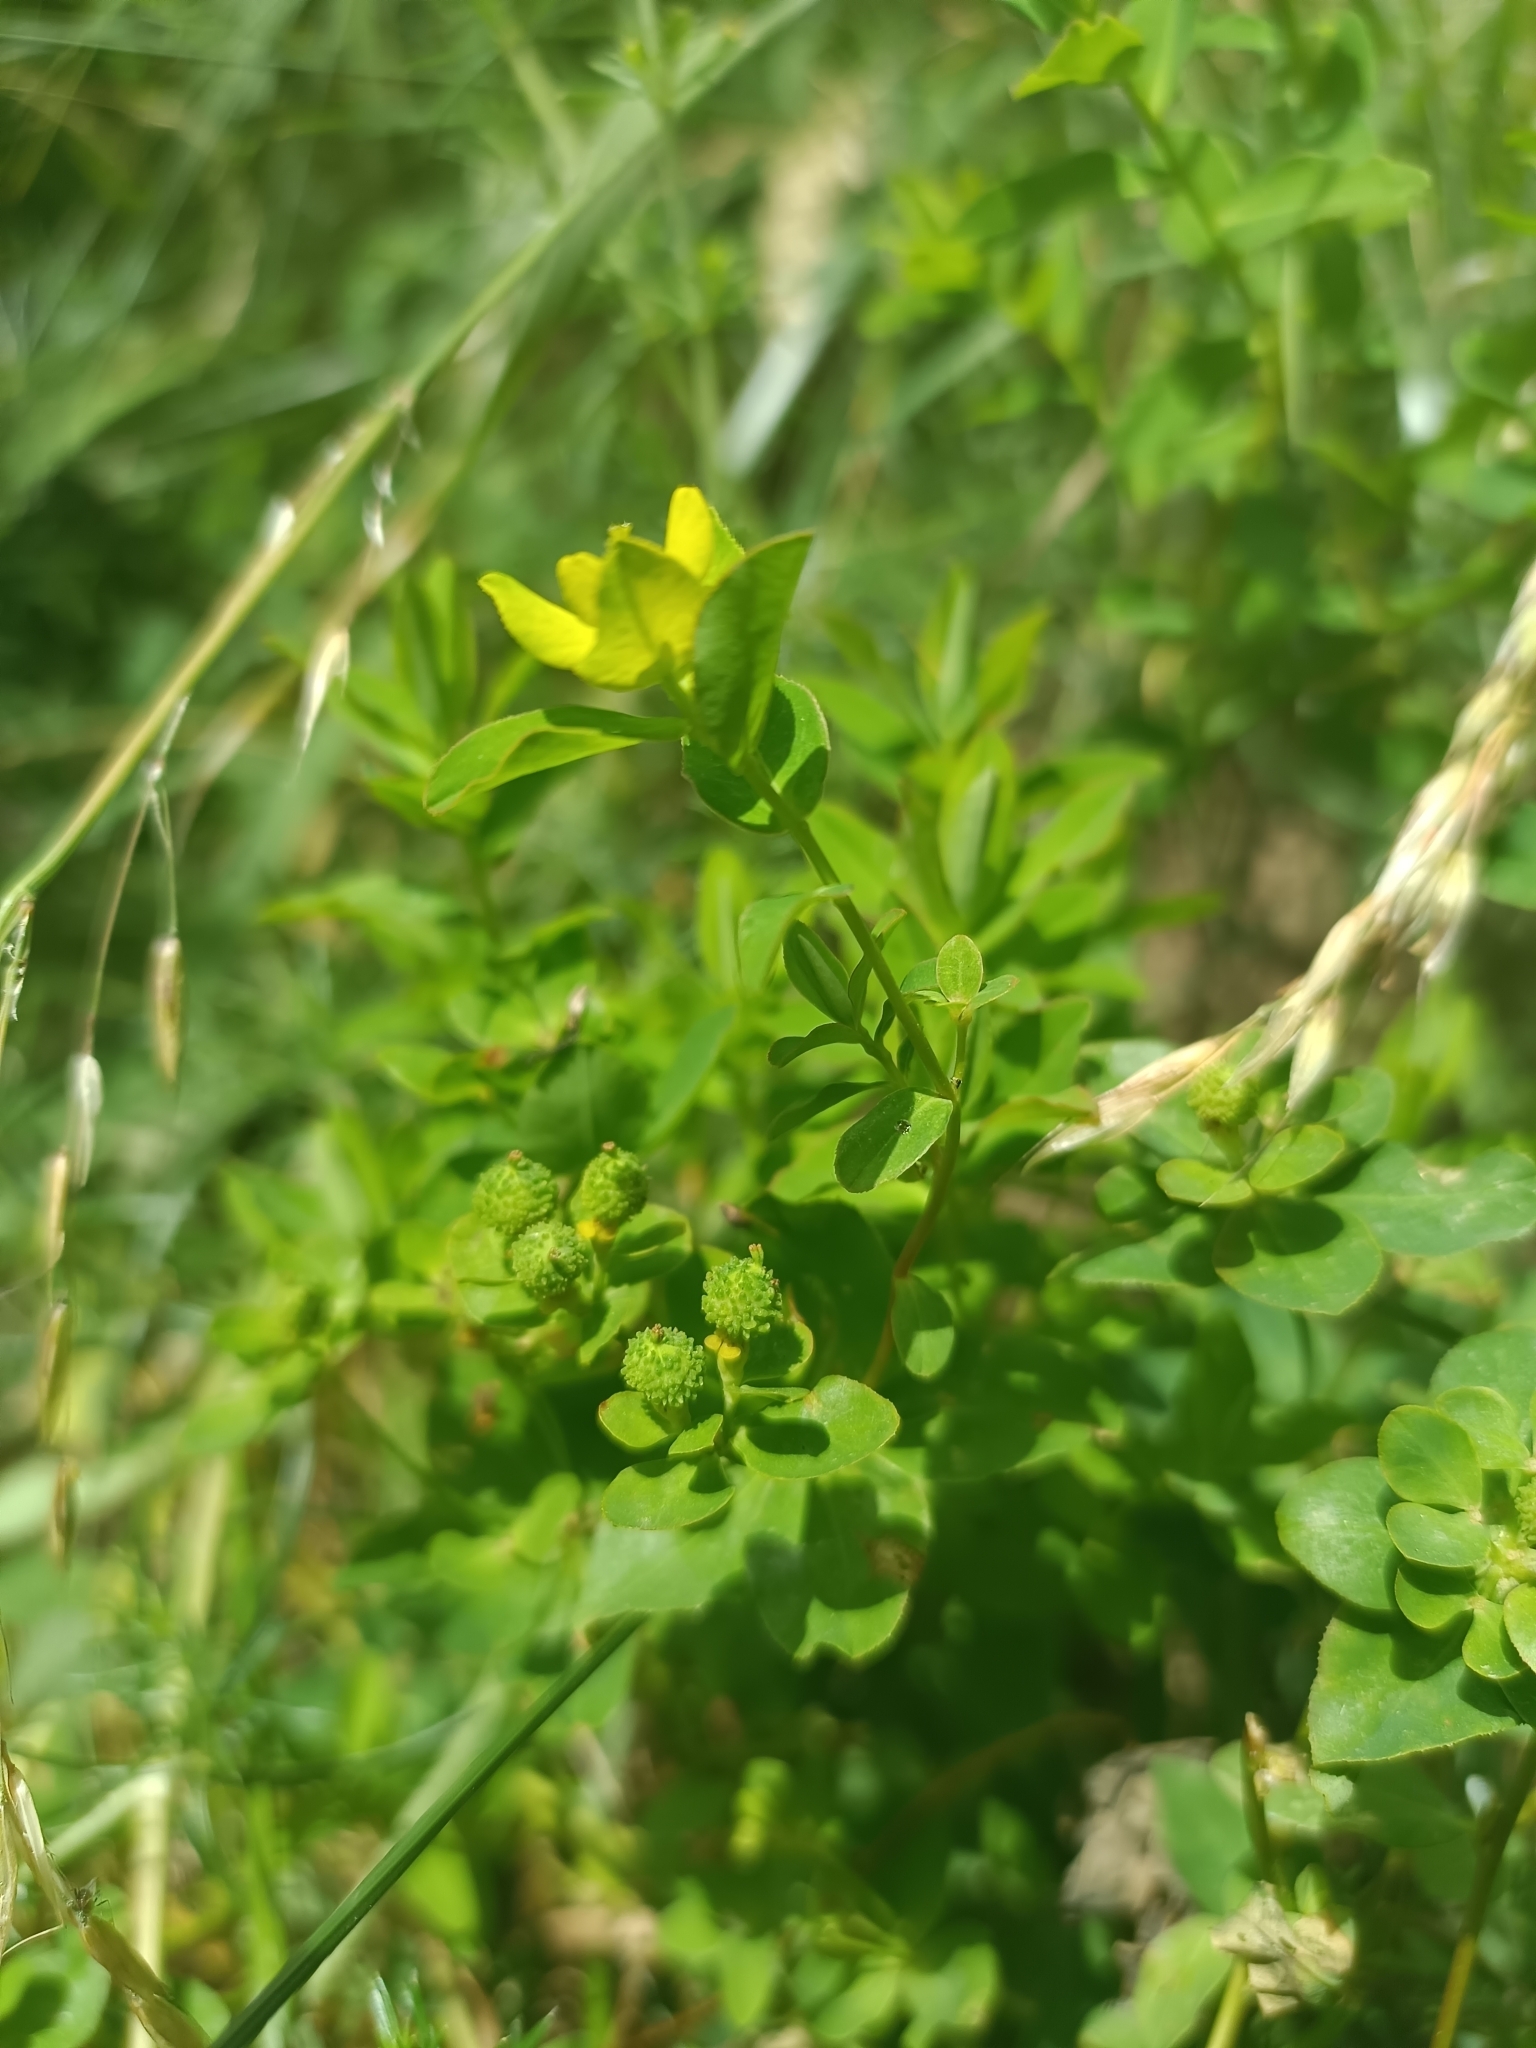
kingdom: Plantae
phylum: Tracheophyta
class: Magnoliopsida
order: Malpighiales
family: Euphorbiaceae
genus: Euphorbia
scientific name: Euphorbia verrucosa
